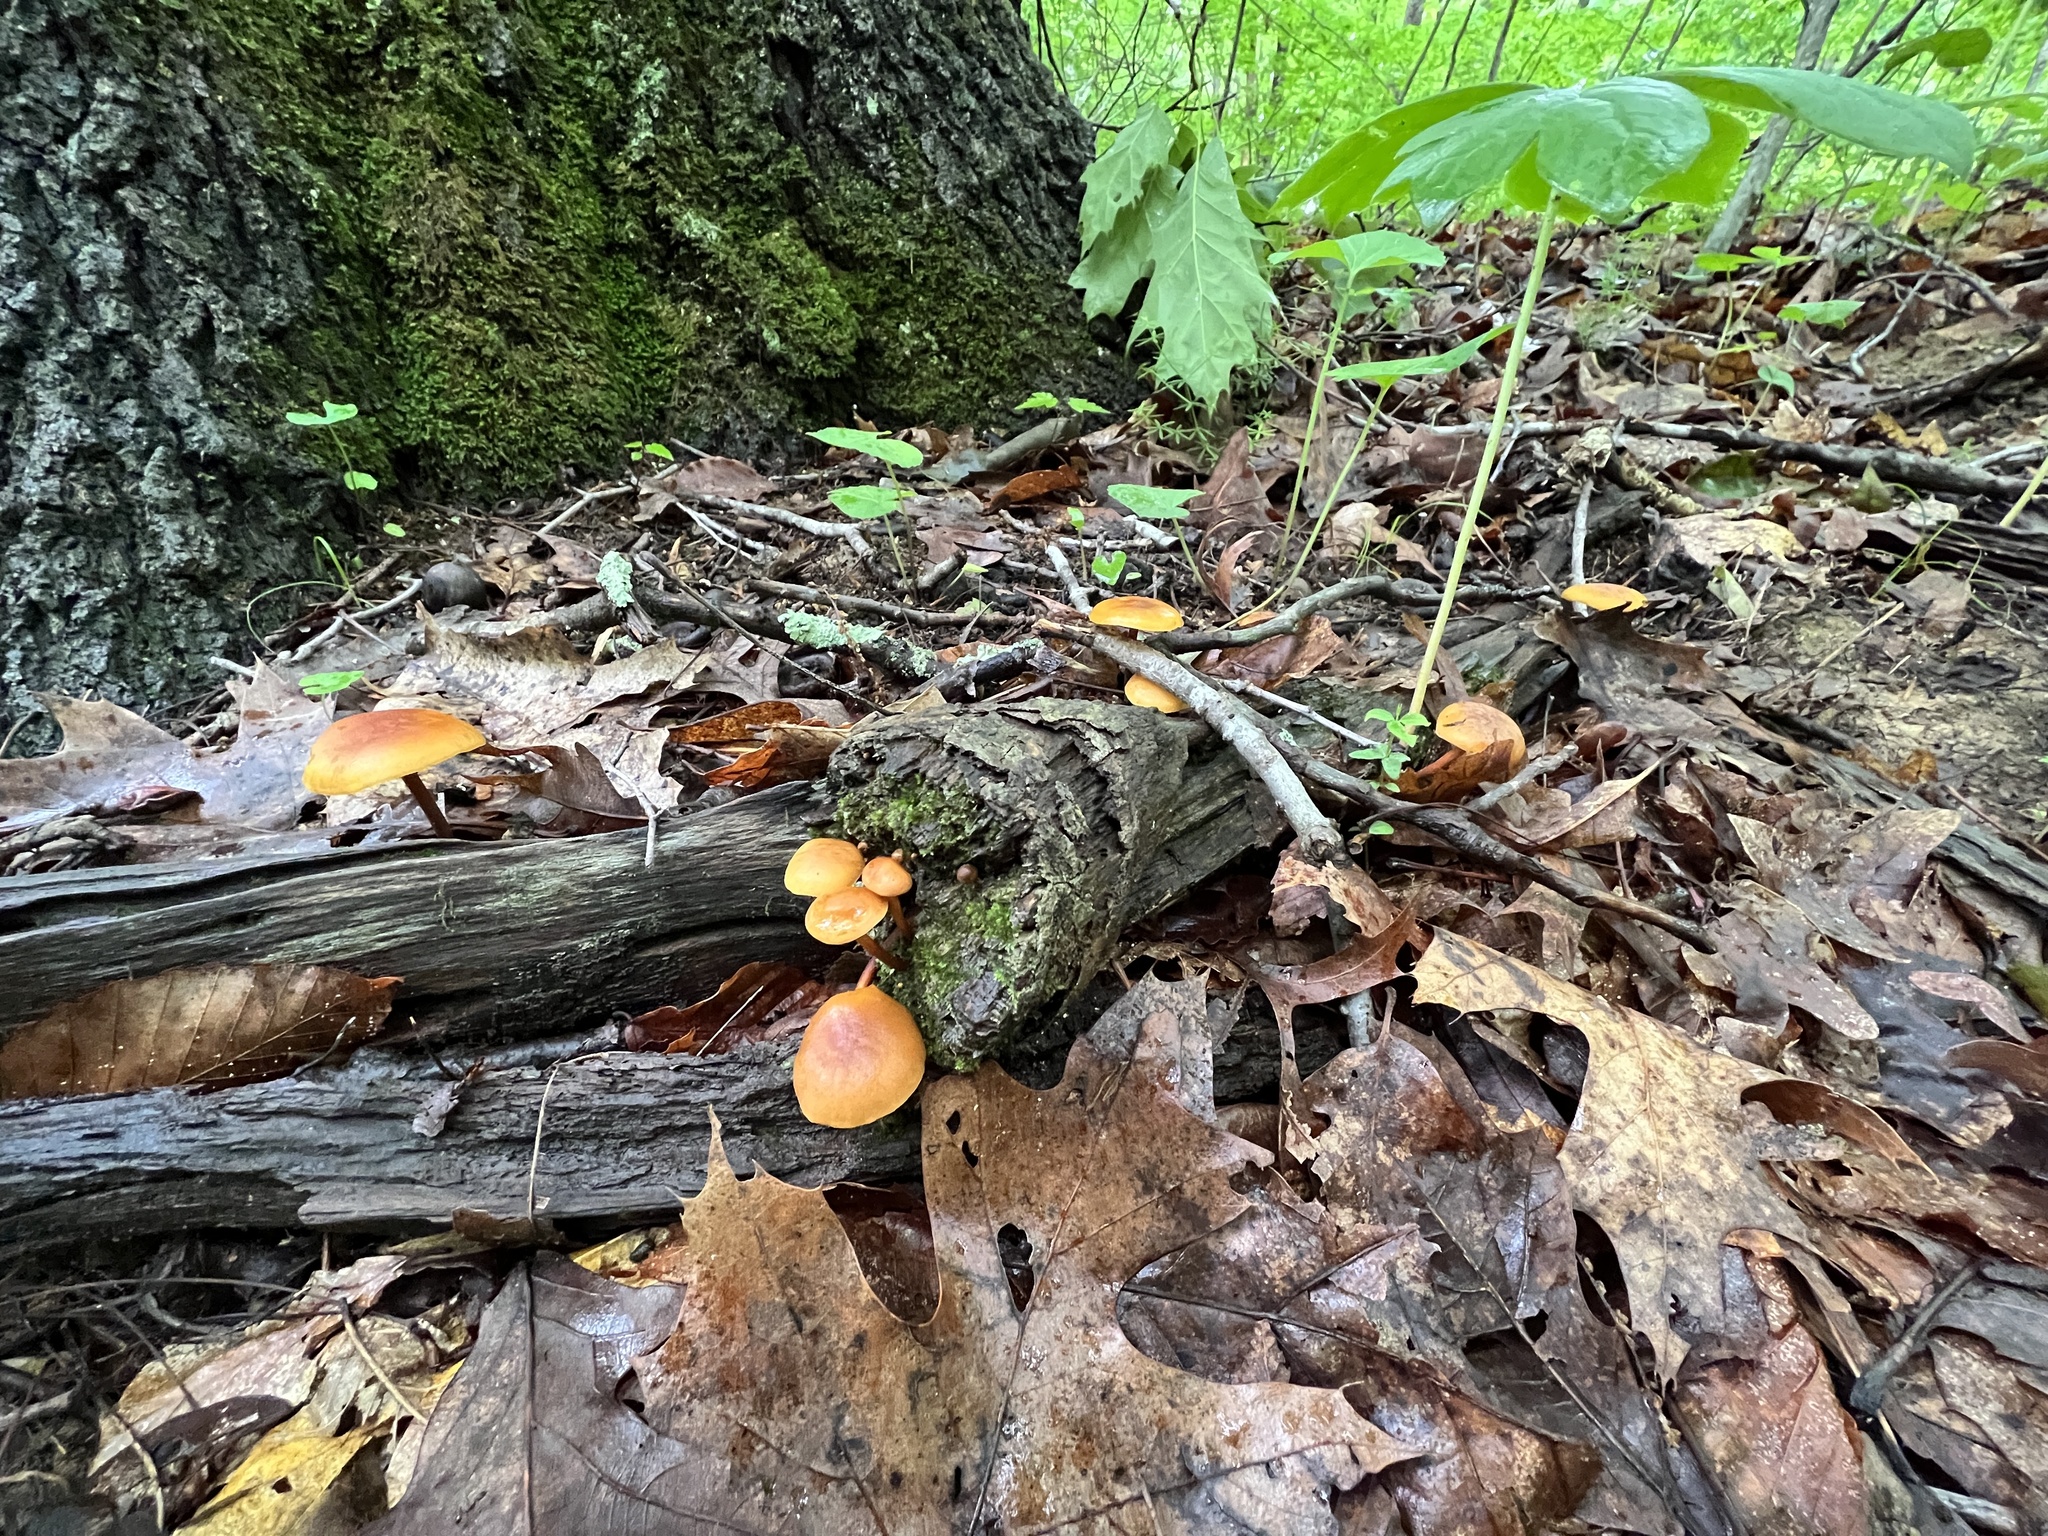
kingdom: Fungi
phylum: Basidiomycota
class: Agaricomycetes
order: Agaricales
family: Mycenaceae
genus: Xeromphalina
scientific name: Xeromphalina tenuipes
